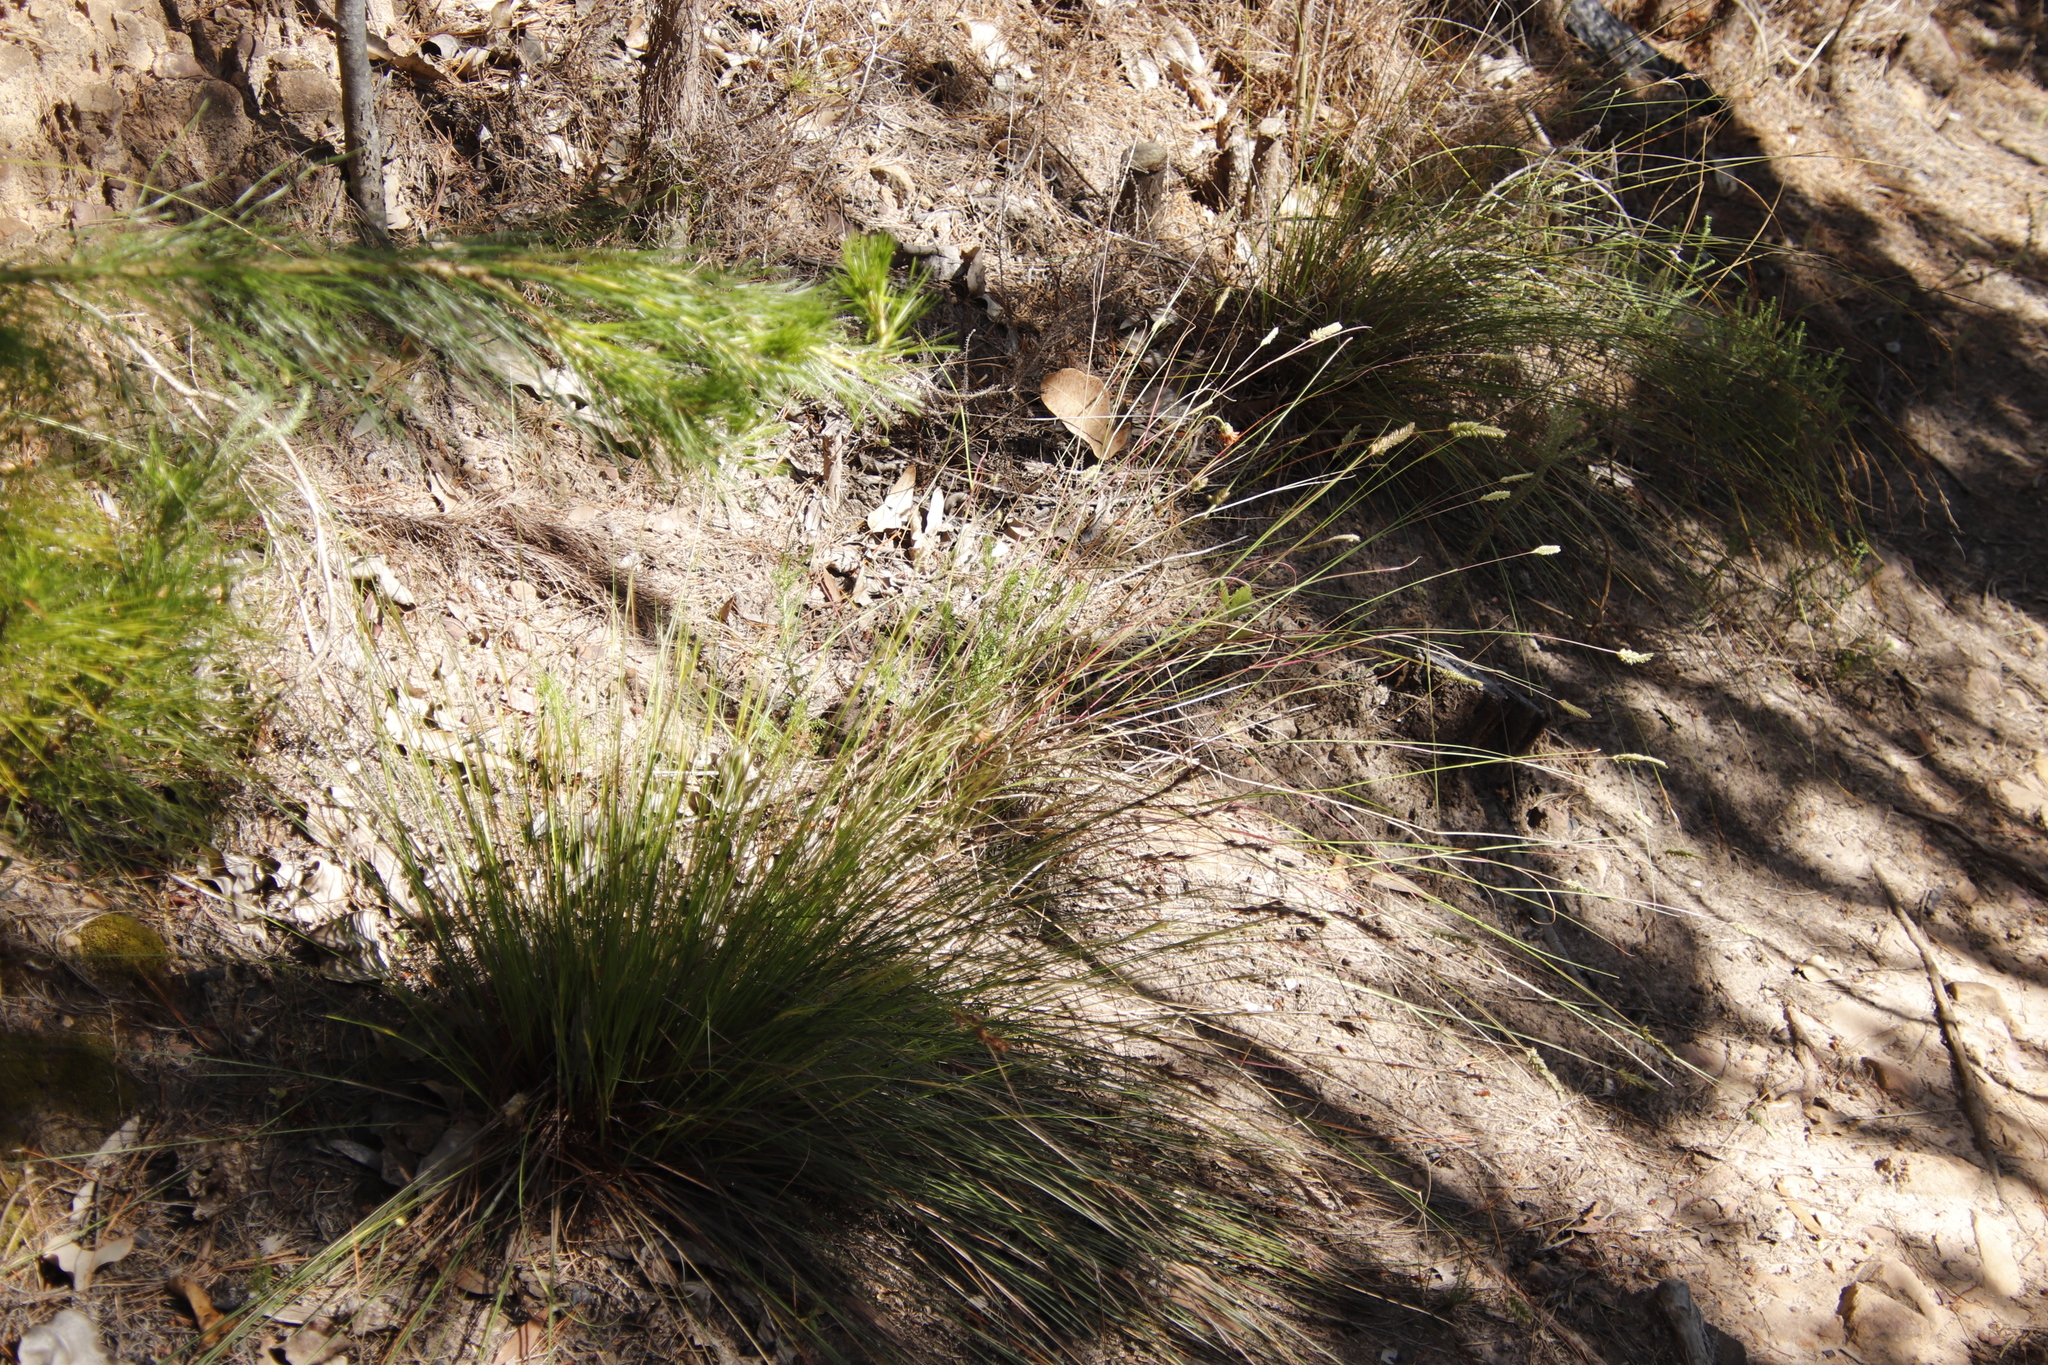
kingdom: Plantae
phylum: Tracheophyta
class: Liliopsida
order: Poales
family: Poaceae
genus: Tribolium
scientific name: Tribolium uniolae
